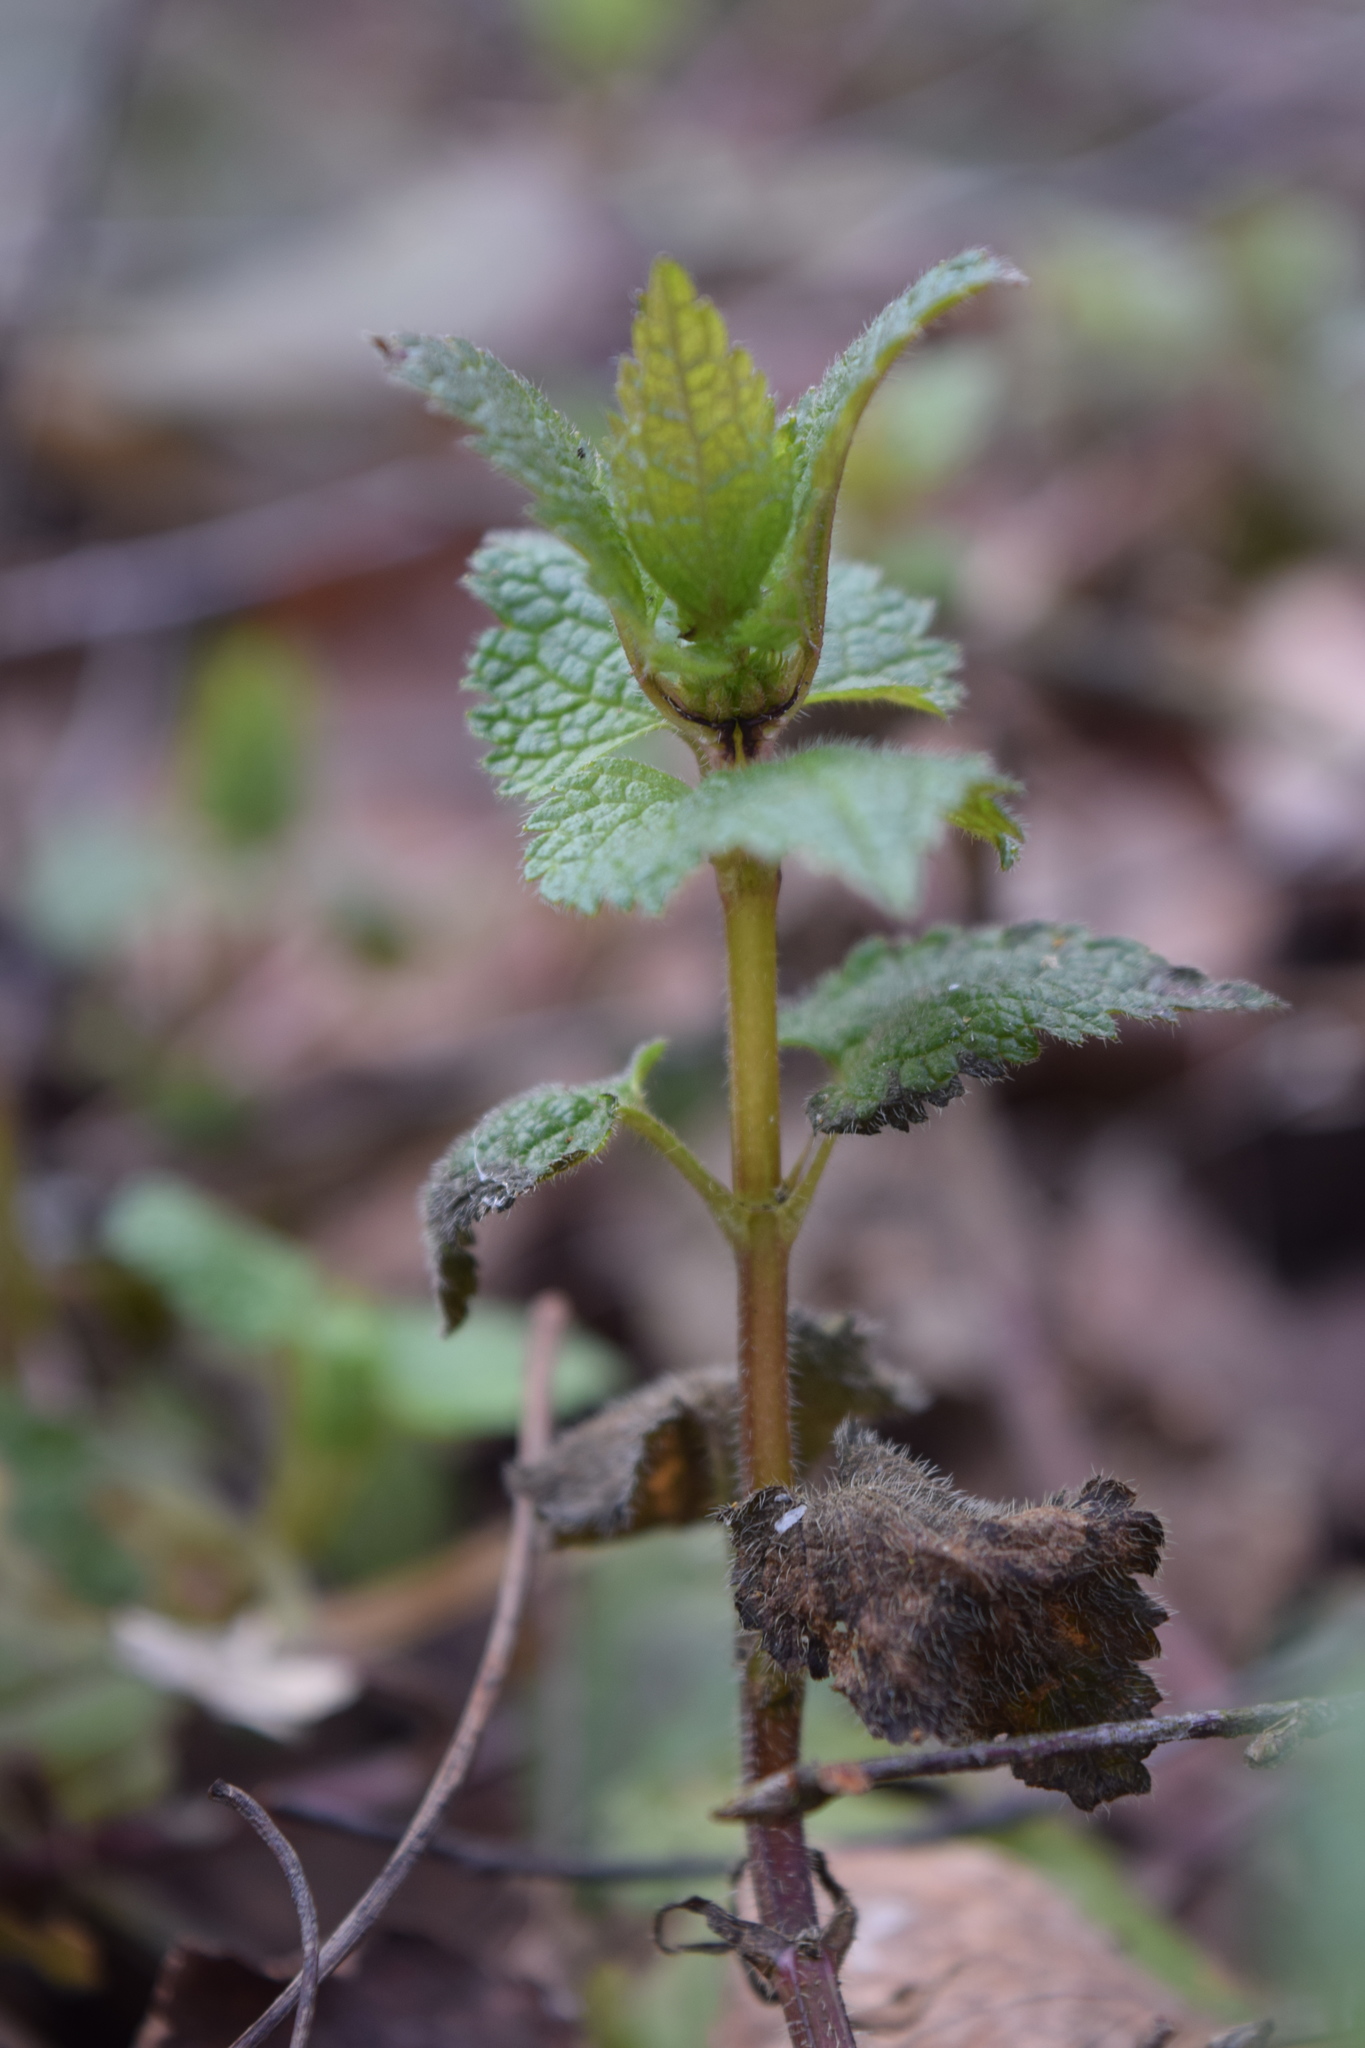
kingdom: Plantae
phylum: Tracheophyta
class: Magnoliopsida
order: Lamiales
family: Lamiaceae
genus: Lamium
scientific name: Lamium maculatum
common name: Spotted dead-nettle
